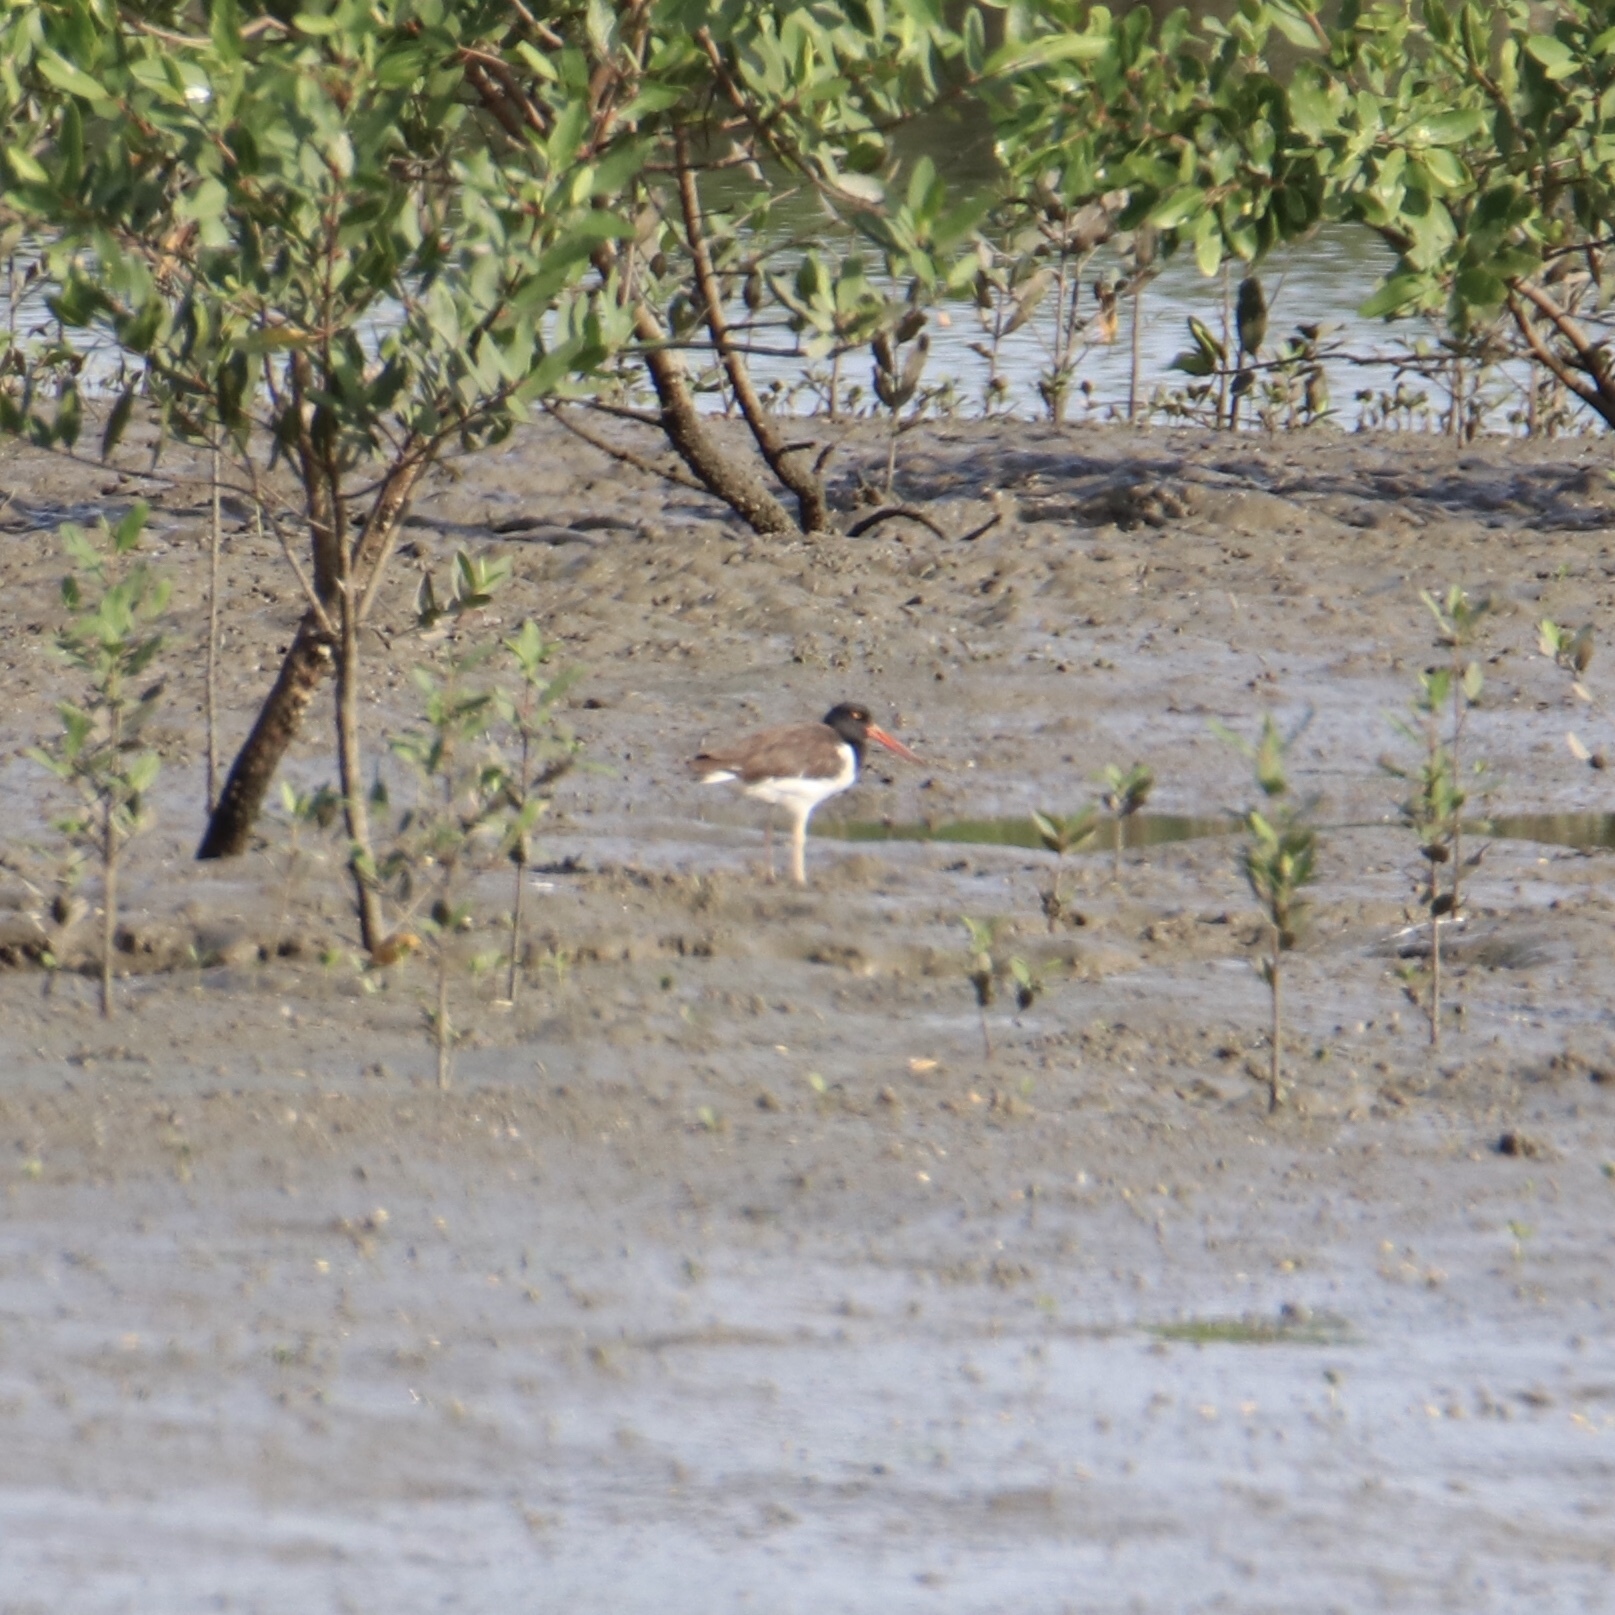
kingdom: Animalia
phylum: Chordata
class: Aves
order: Charadriiformes
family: Haematopodidae
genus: Haematopus
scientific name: Haematopus palliatus
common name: American oystercatcher
